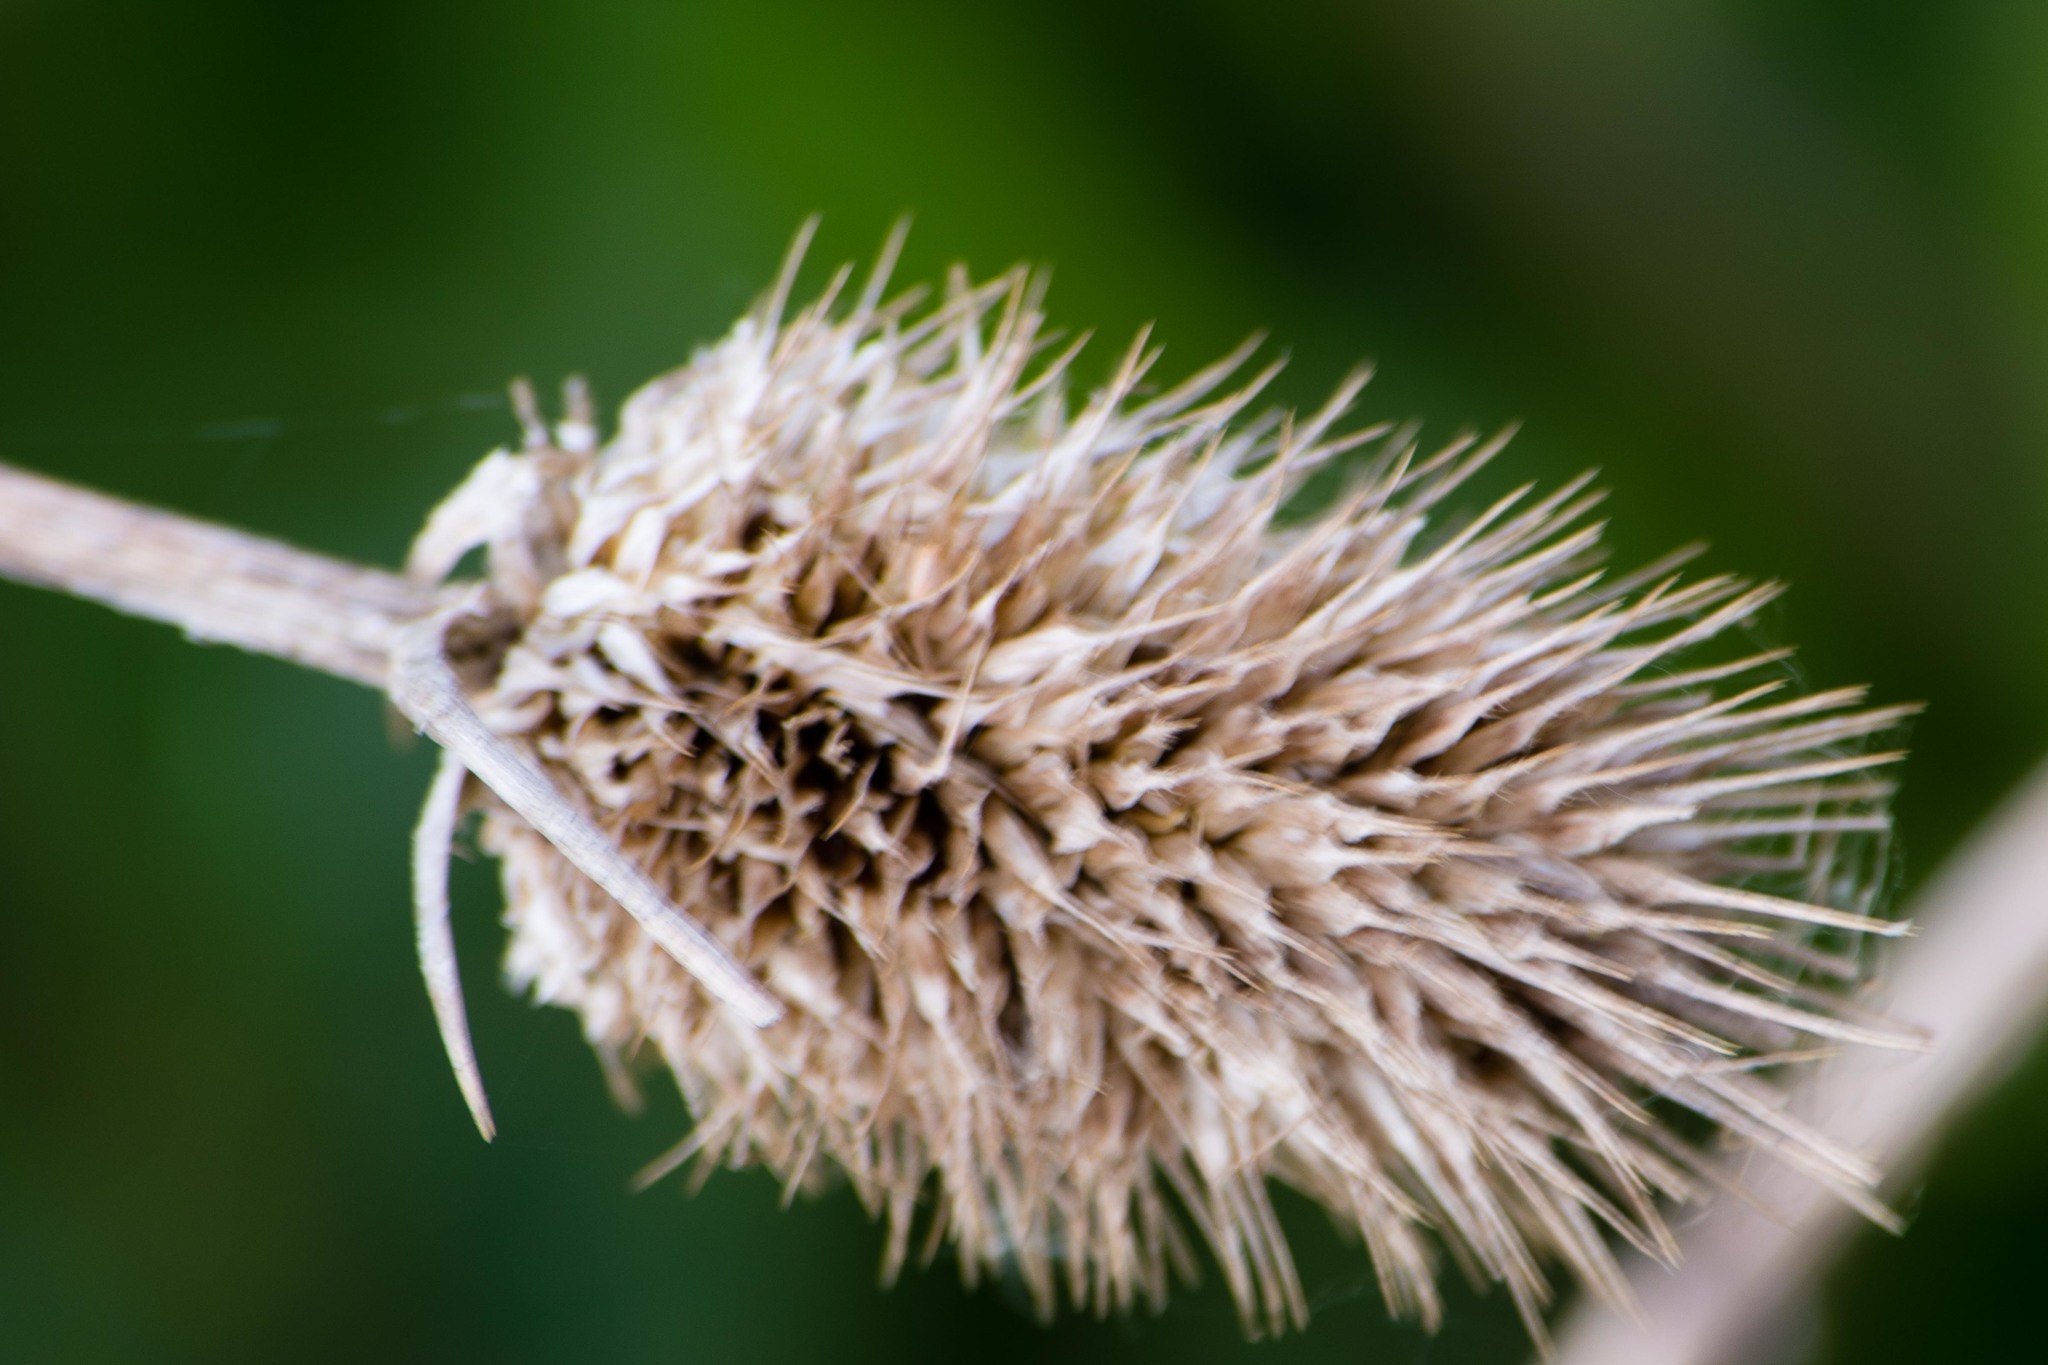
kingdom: Plantae
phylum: Tracheophyta
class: Magnoliopsida
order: Dipsacales
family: Caprifoliaceae
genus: Dipsacus
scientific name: Dipsacus fullonum
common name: Teasel
